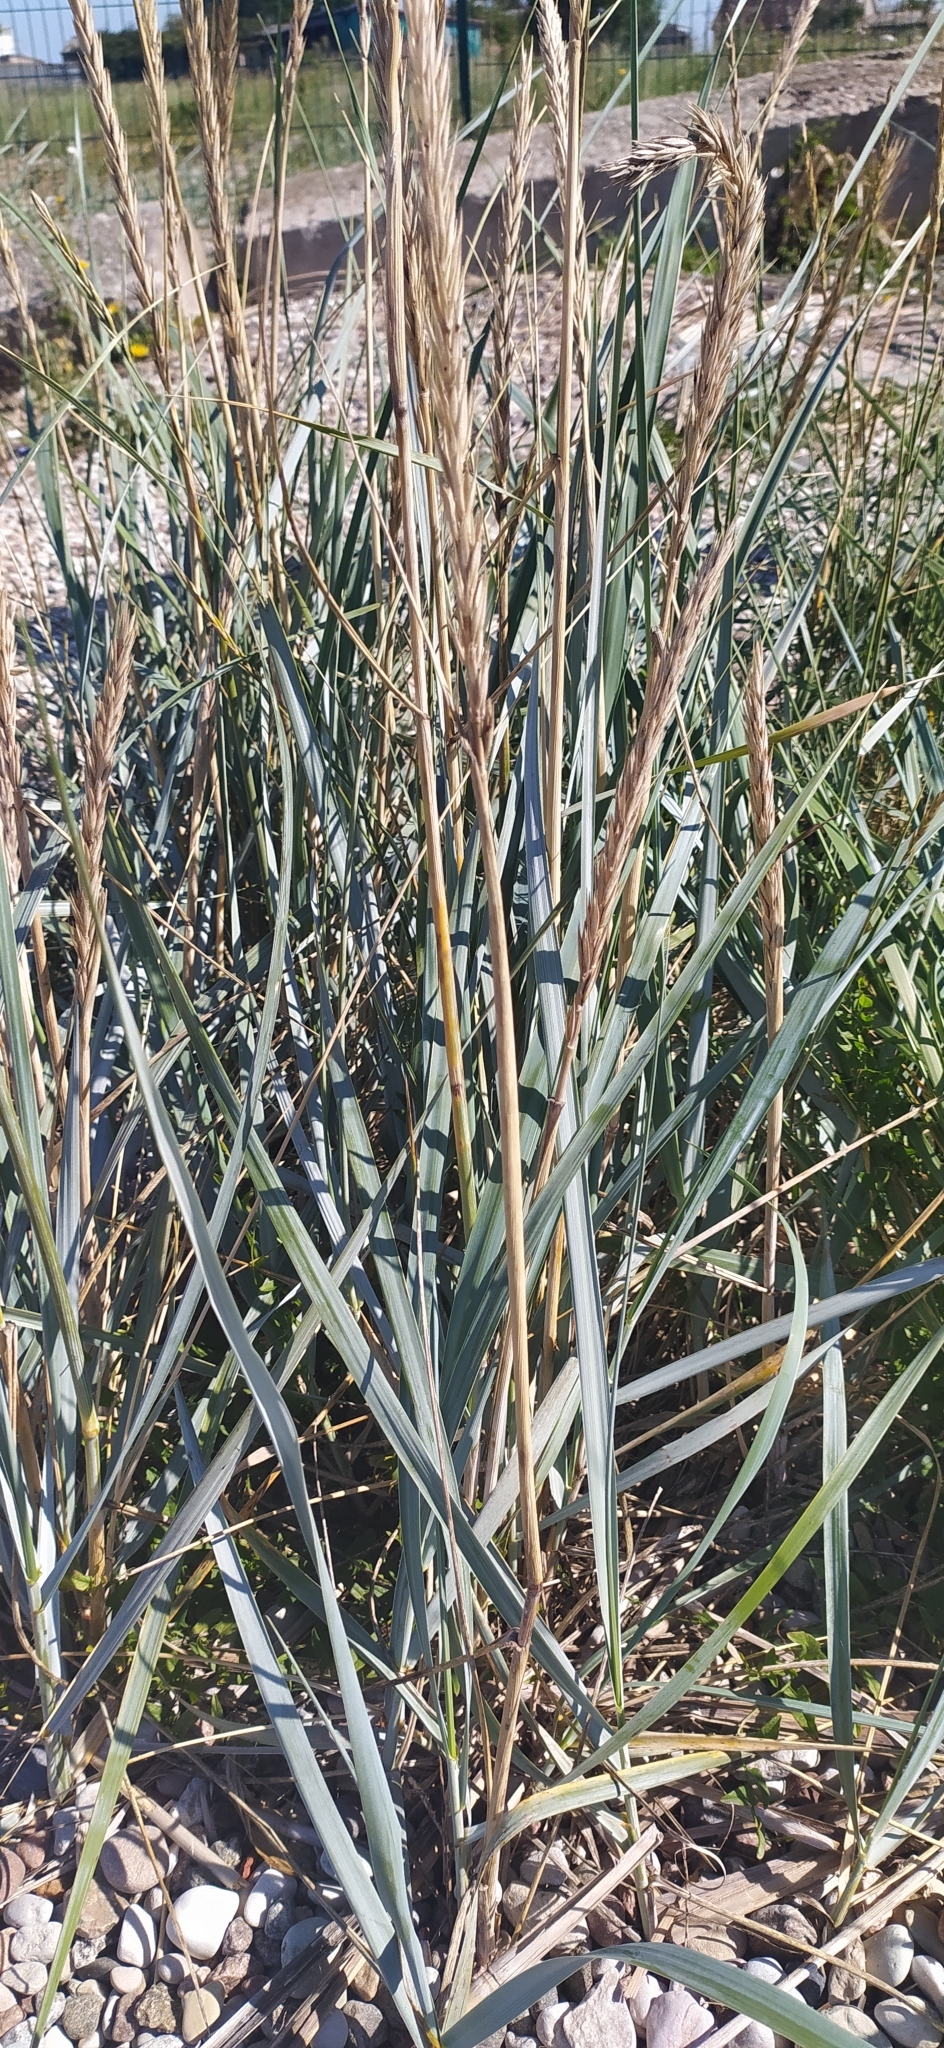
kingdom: Plantae
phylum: Tracheophyta
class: Liliopsida
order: Poales
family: Poaceae
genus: Leymus
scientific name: Leymus arenarius
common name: Lyme-grass
